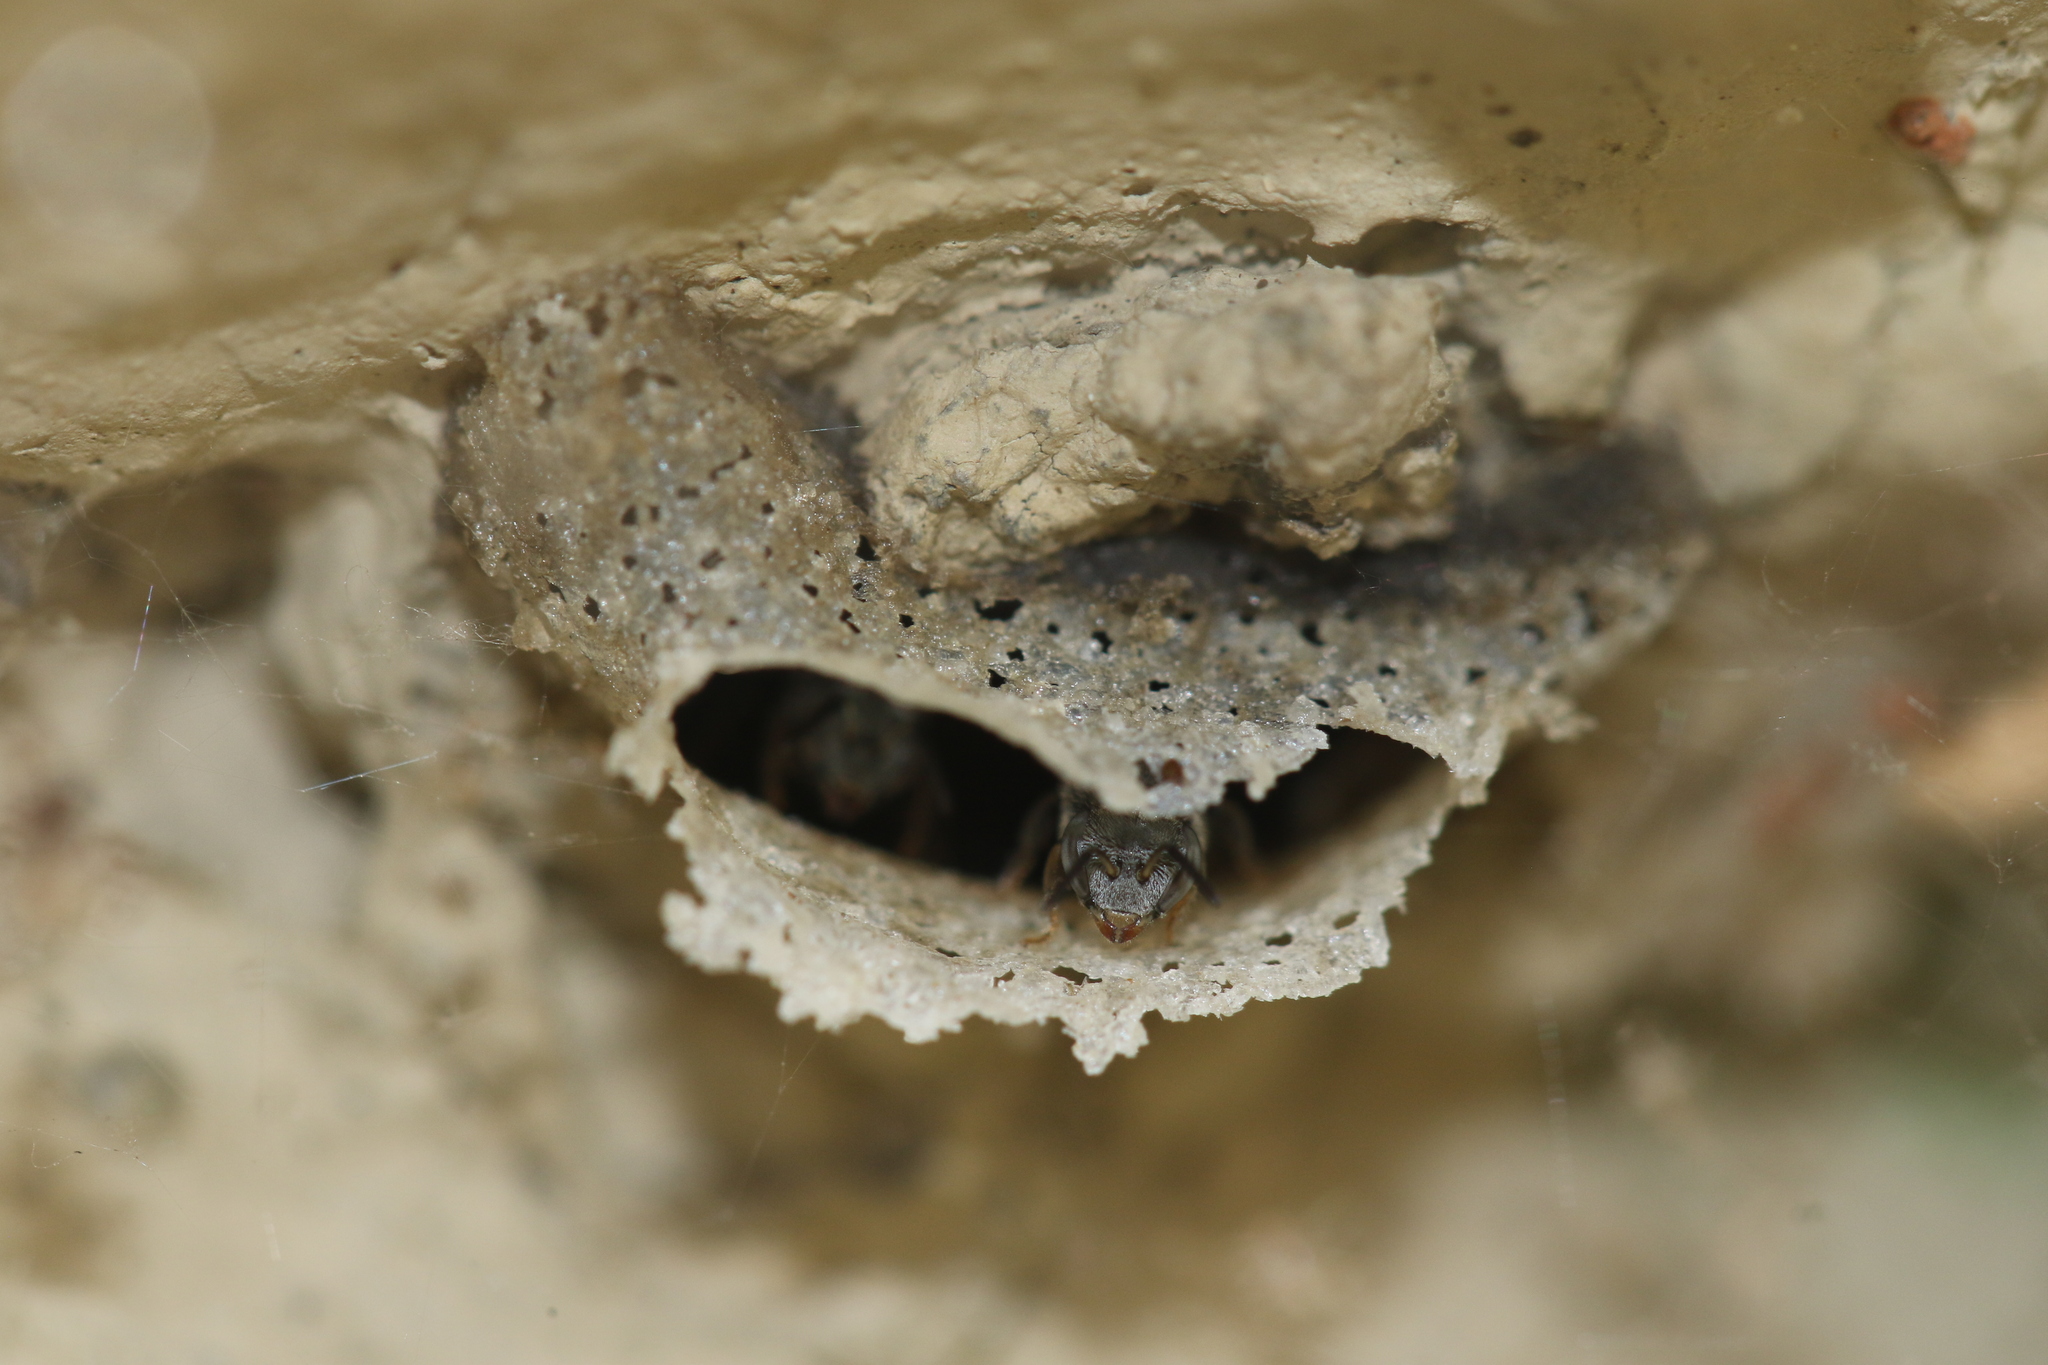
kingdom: Animalia
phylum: Arthropoda
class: Insecta
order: Hymenoptera
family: Apidae
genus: Friesella
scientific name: Friesella schrottkyi
